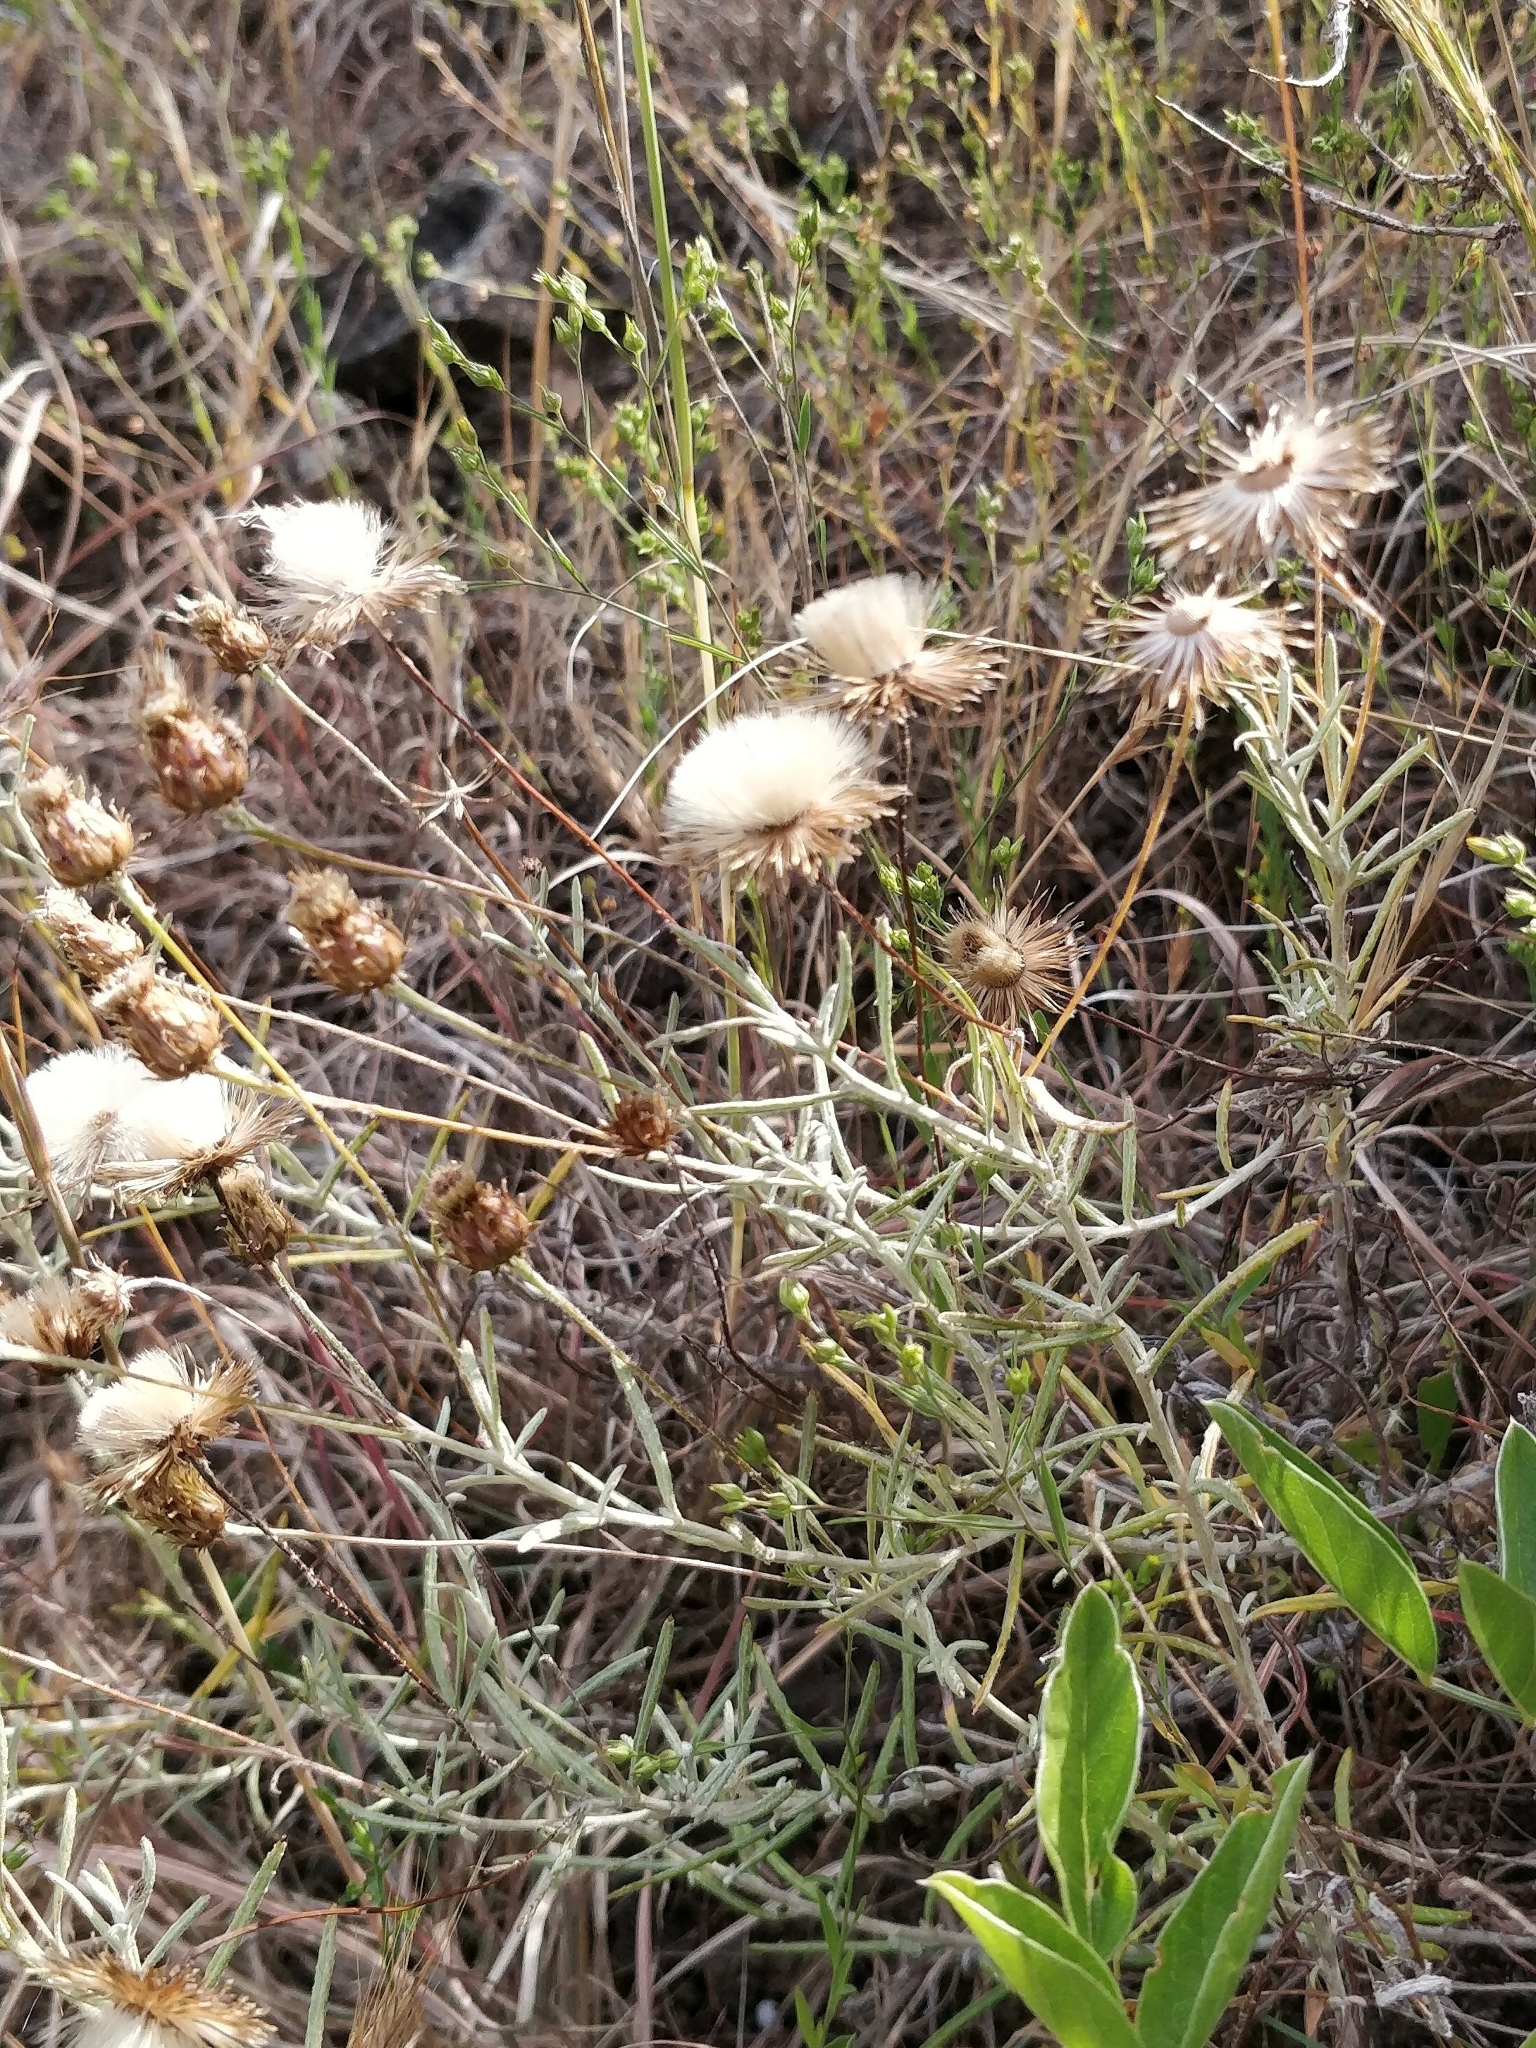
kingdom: Plantae
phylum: Tracheophyta
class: Magnoliopsida
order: Asterales
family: Asteraceae
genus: Phagnalon
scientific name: Phagnalon saxatile
